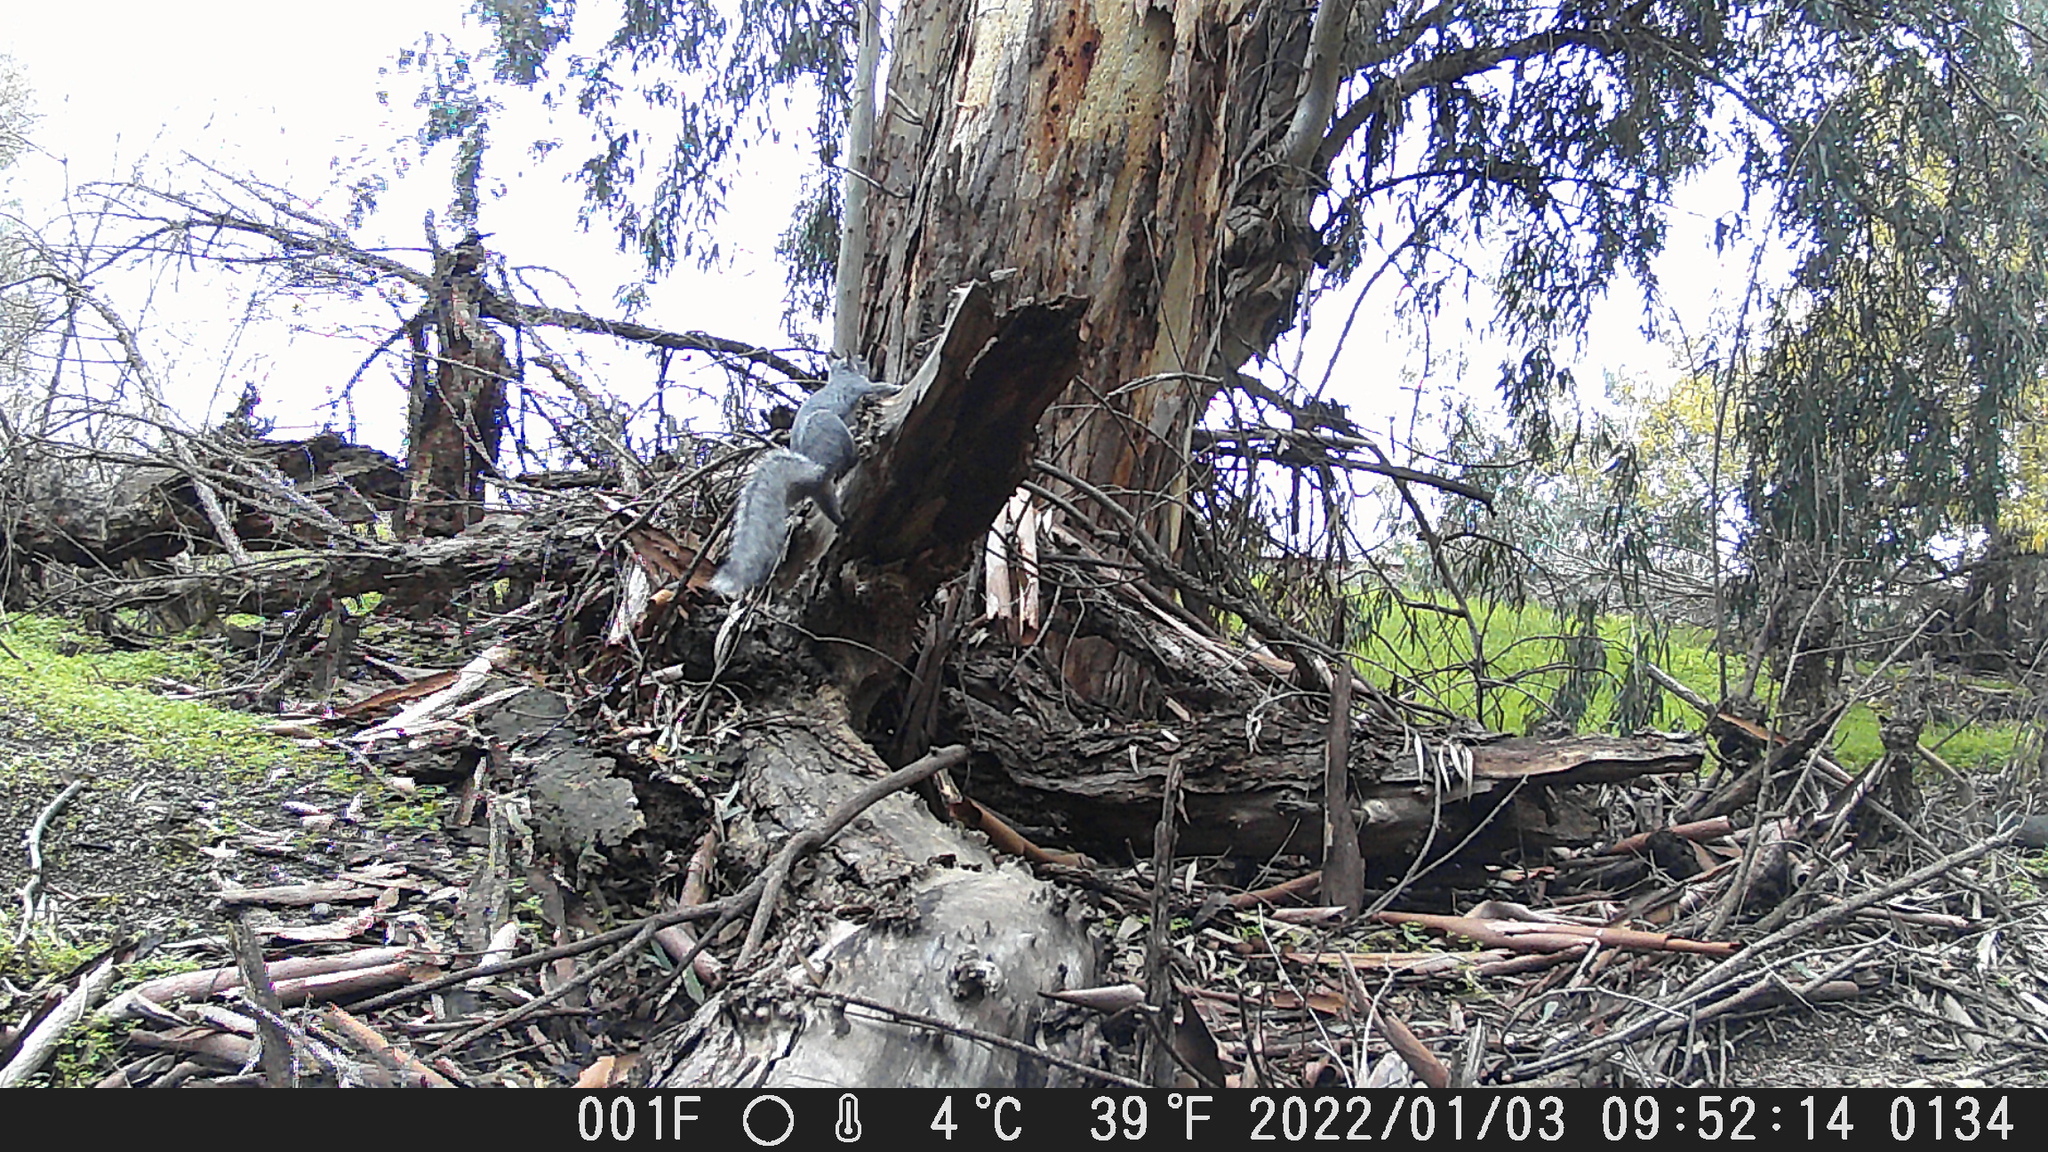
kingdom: Animalia
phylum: Chordata
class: Mammalia
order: Rodentia
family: Sciuridae
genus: Sciurus
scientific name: Sciurus griseus
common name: Western gray squirrel
